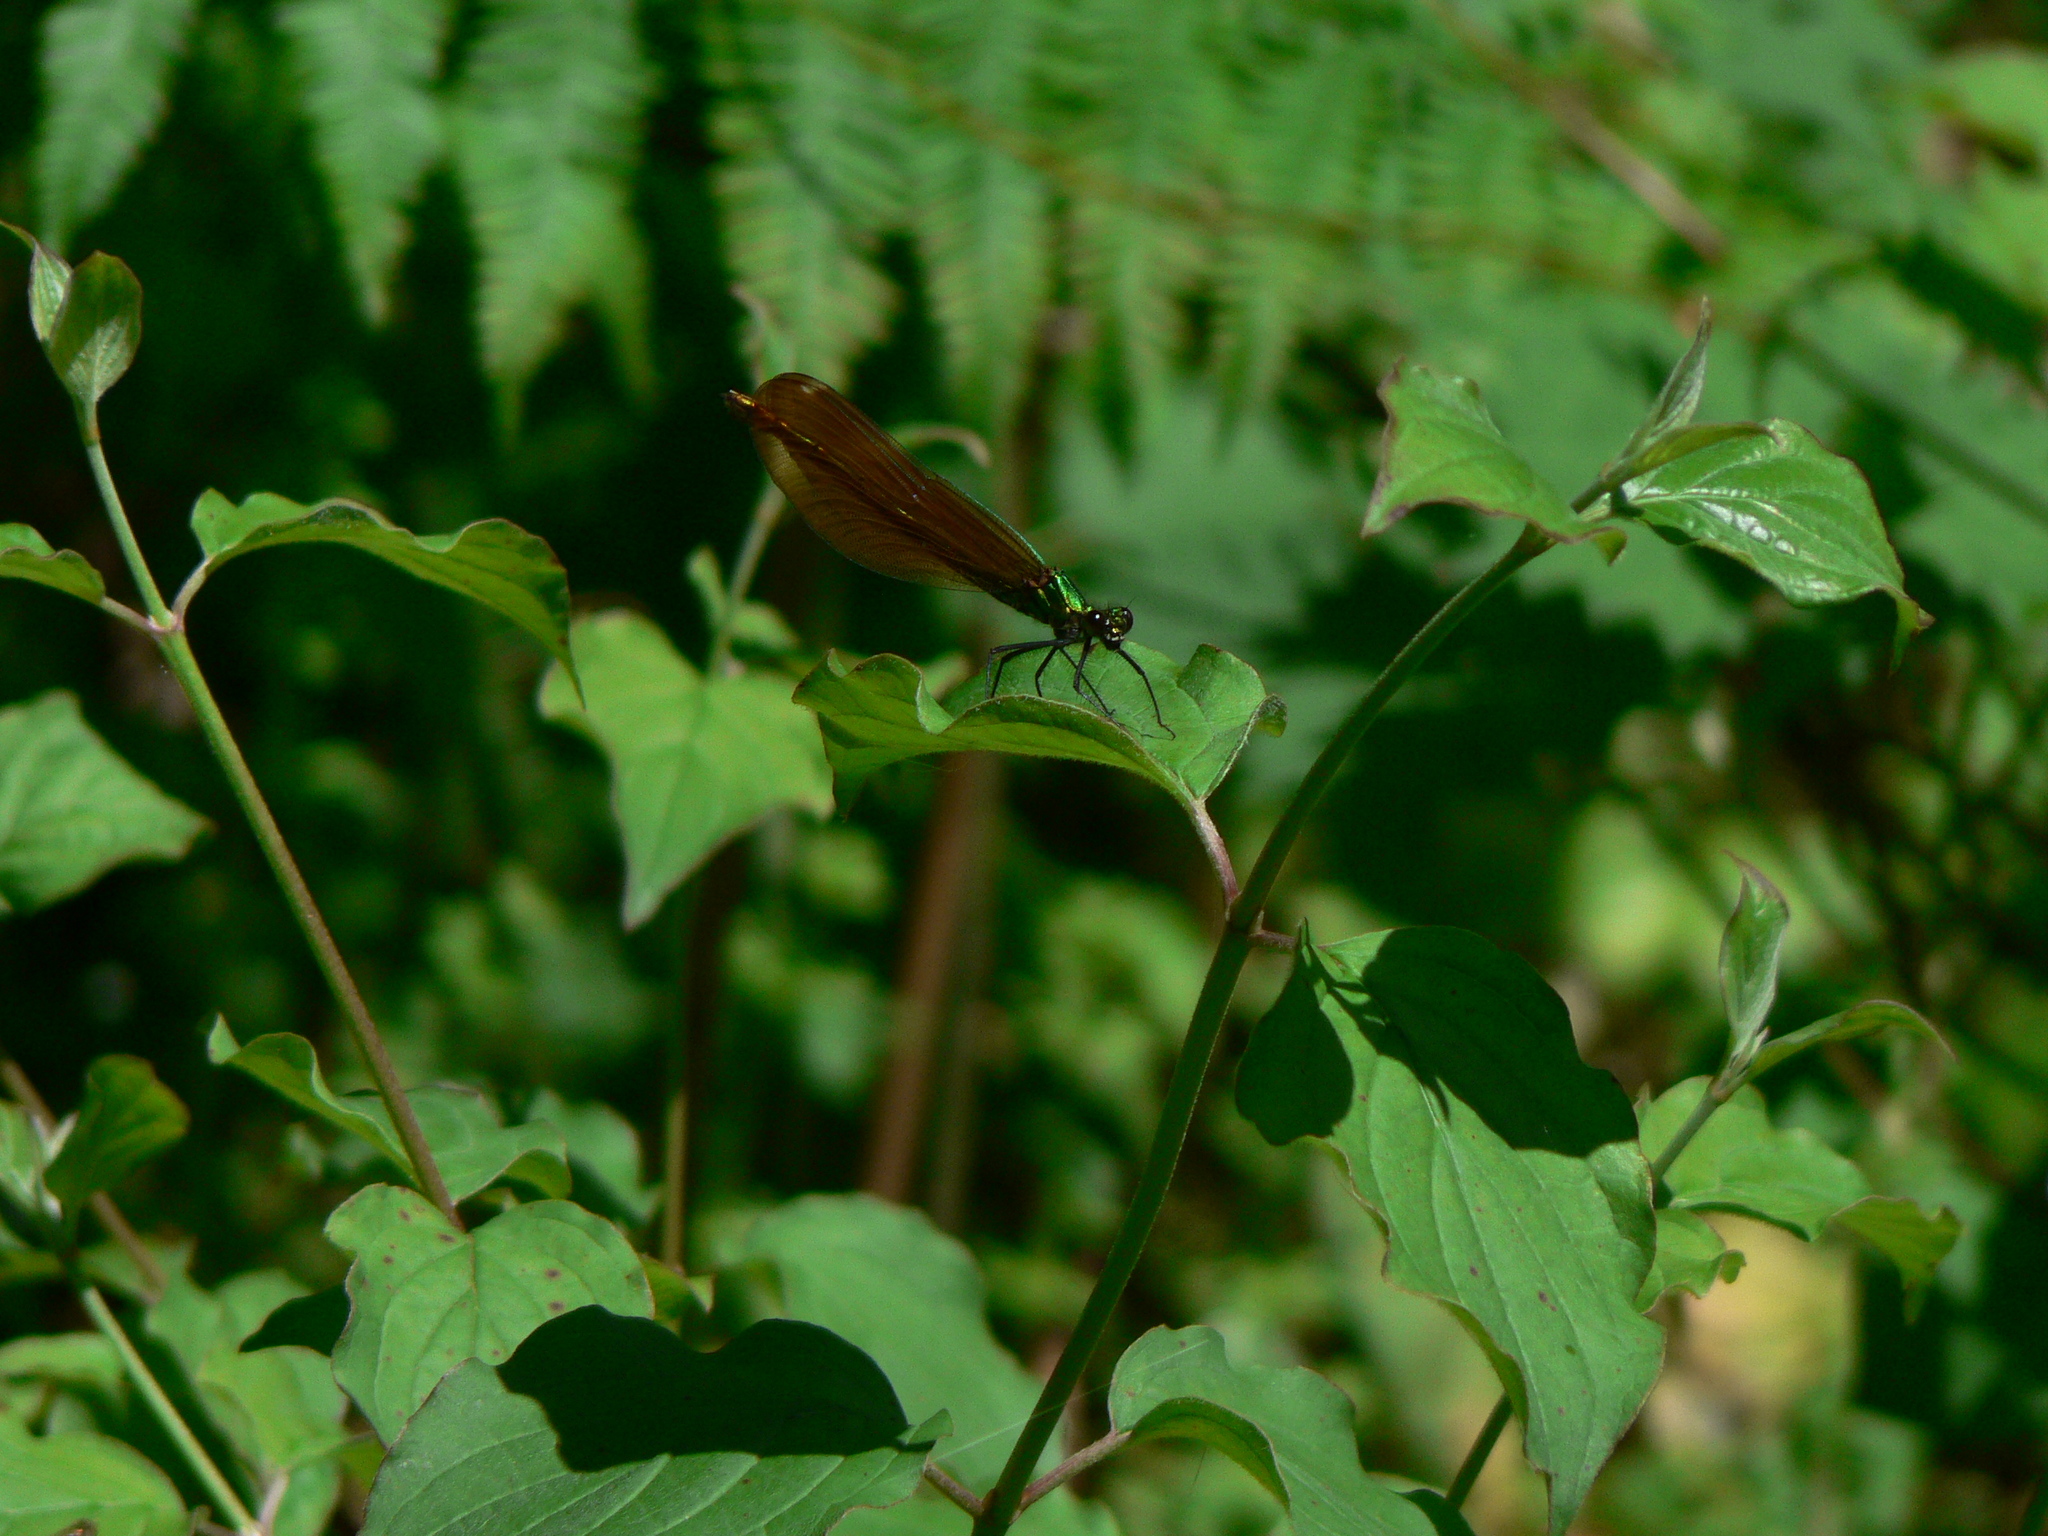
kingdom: Animalia
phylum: Arthropoda
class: Insecta
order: Odonata
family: Calopterygidae
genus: Calopteryx
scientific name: Calopteryx virgo
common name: Beautiful demoiselle
